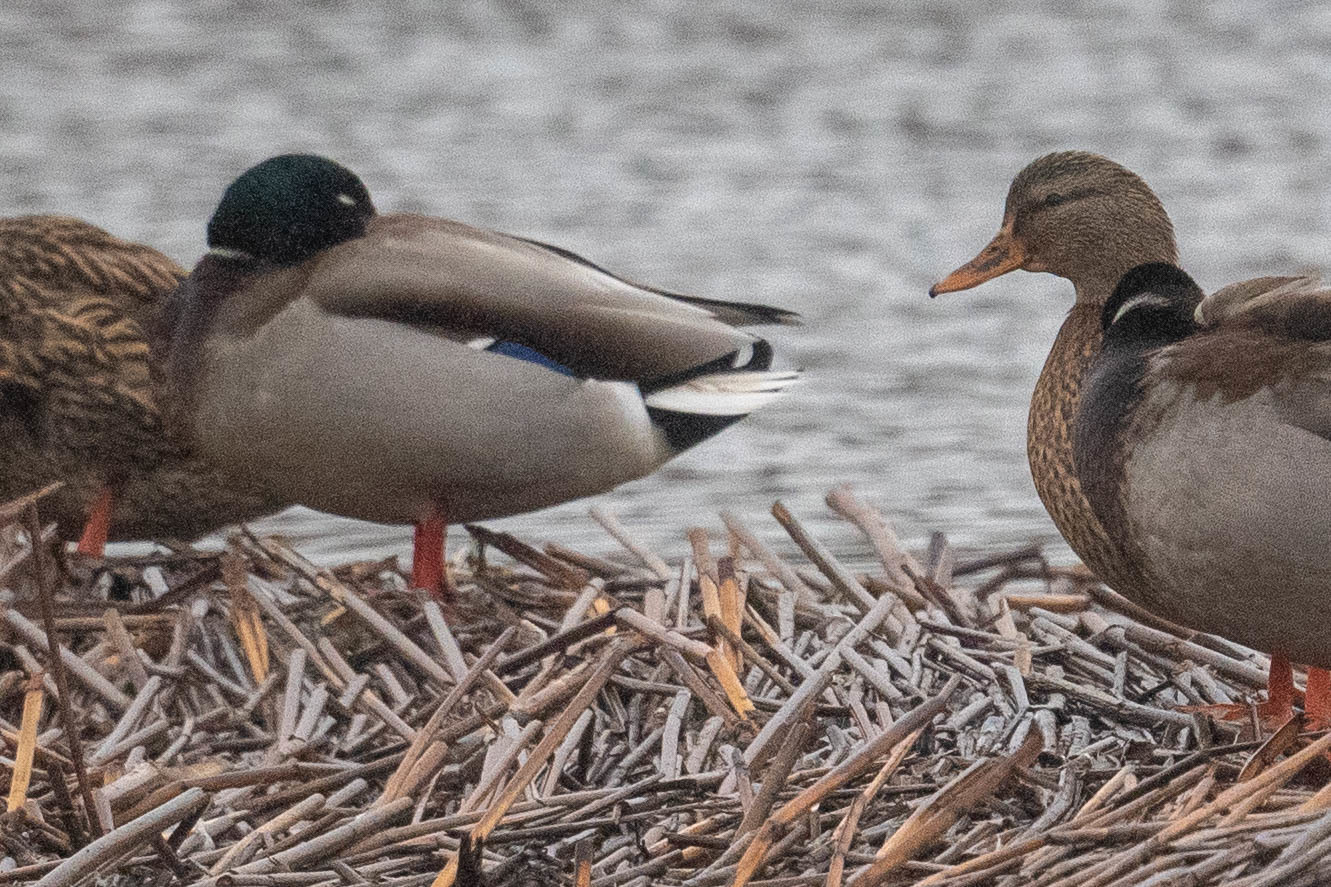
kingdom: Animalia
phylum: Chordata
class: Aves
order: Anseriformes
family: Anatidae
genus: Anas
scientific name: Anas platyrhynchos
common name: Mallard
